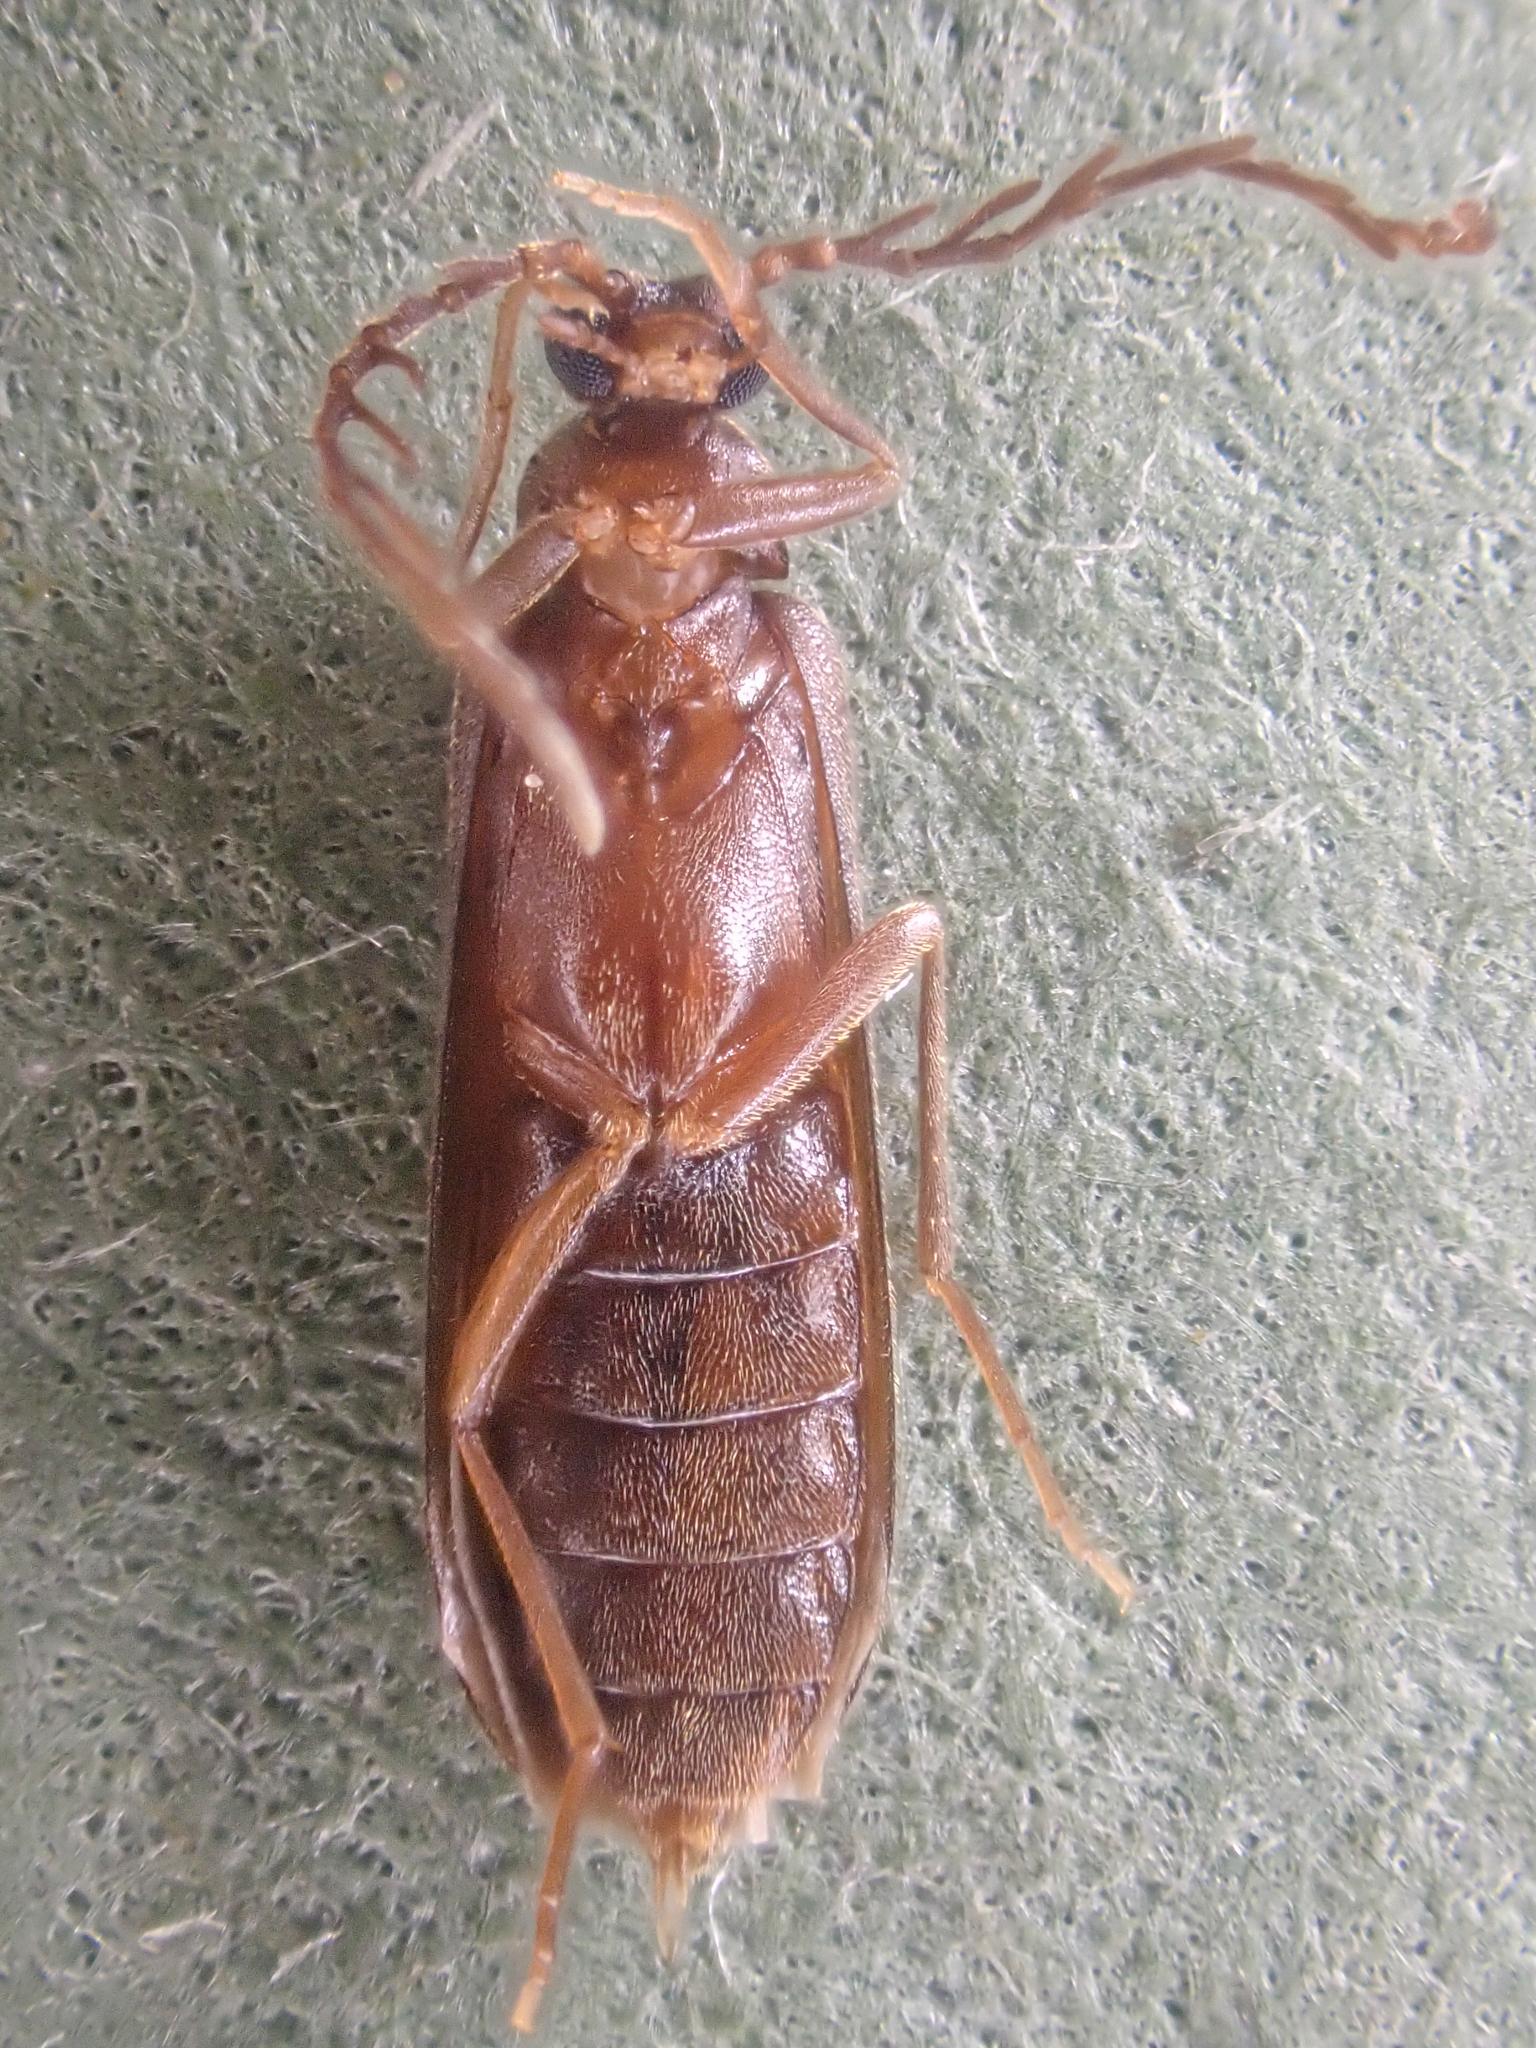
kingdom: Animalia
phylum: Arthropoda
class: Insecta
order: Coleoptera
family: Scraptiidae
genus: Pectotoma
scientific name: Pectotoma hoppingi
